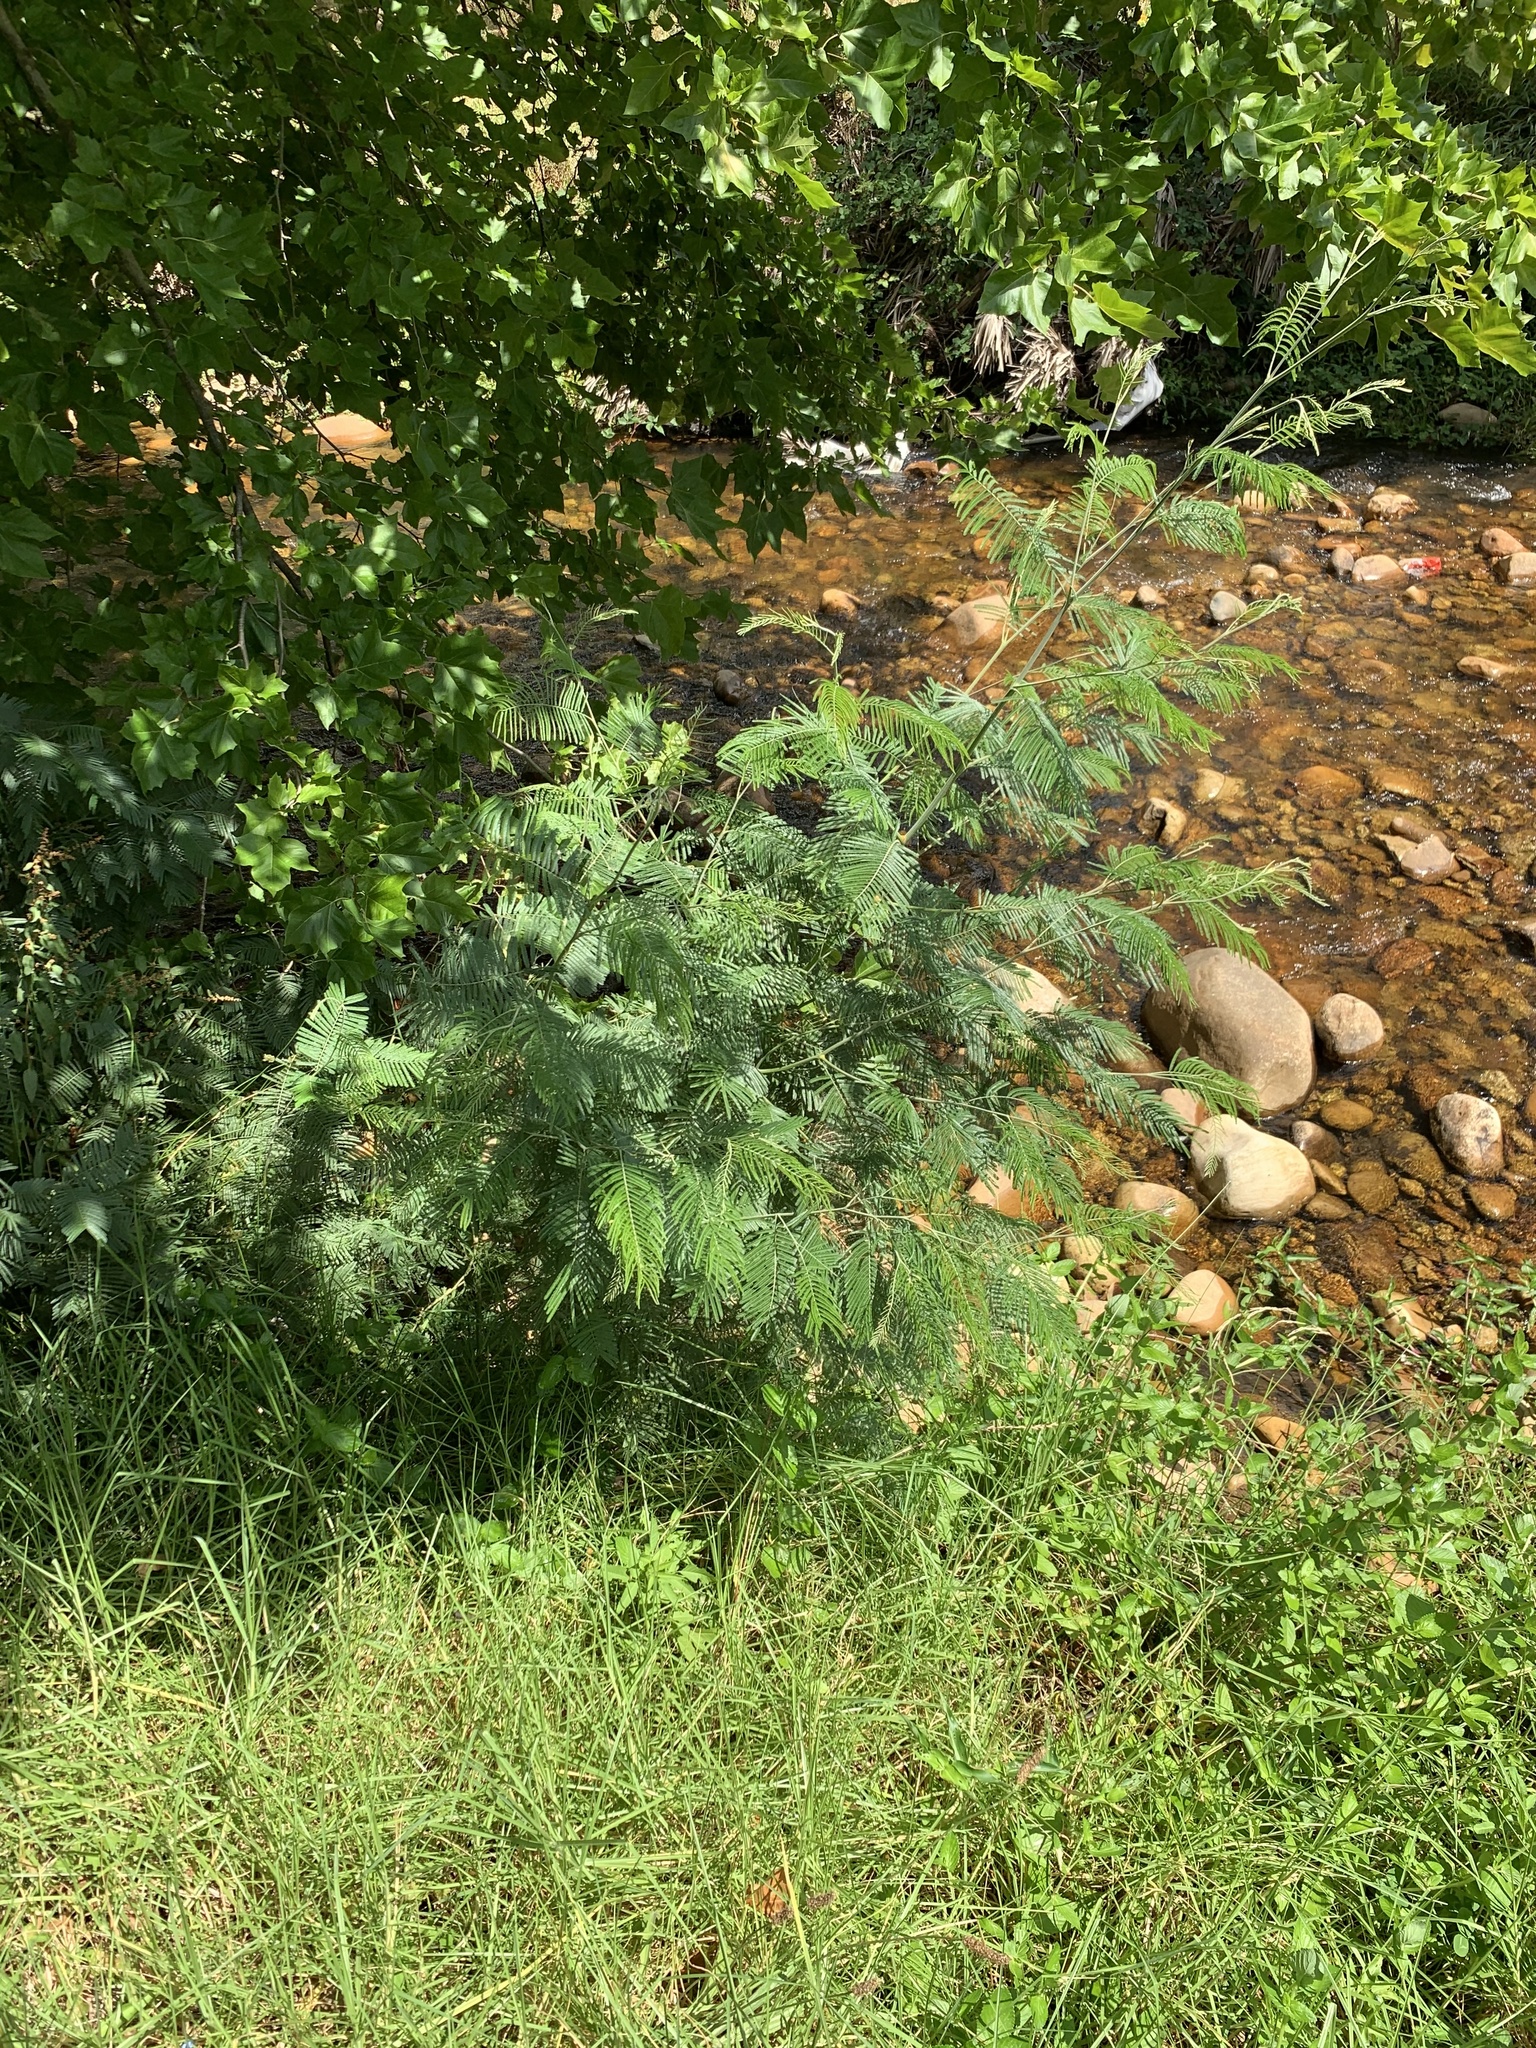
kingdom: Plantae
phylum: Tracheophyta
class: Magnoliopsida
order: Fabales
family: Fabaceae
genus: Acacia
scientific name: Acacia mearnsii
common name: Black wattle
